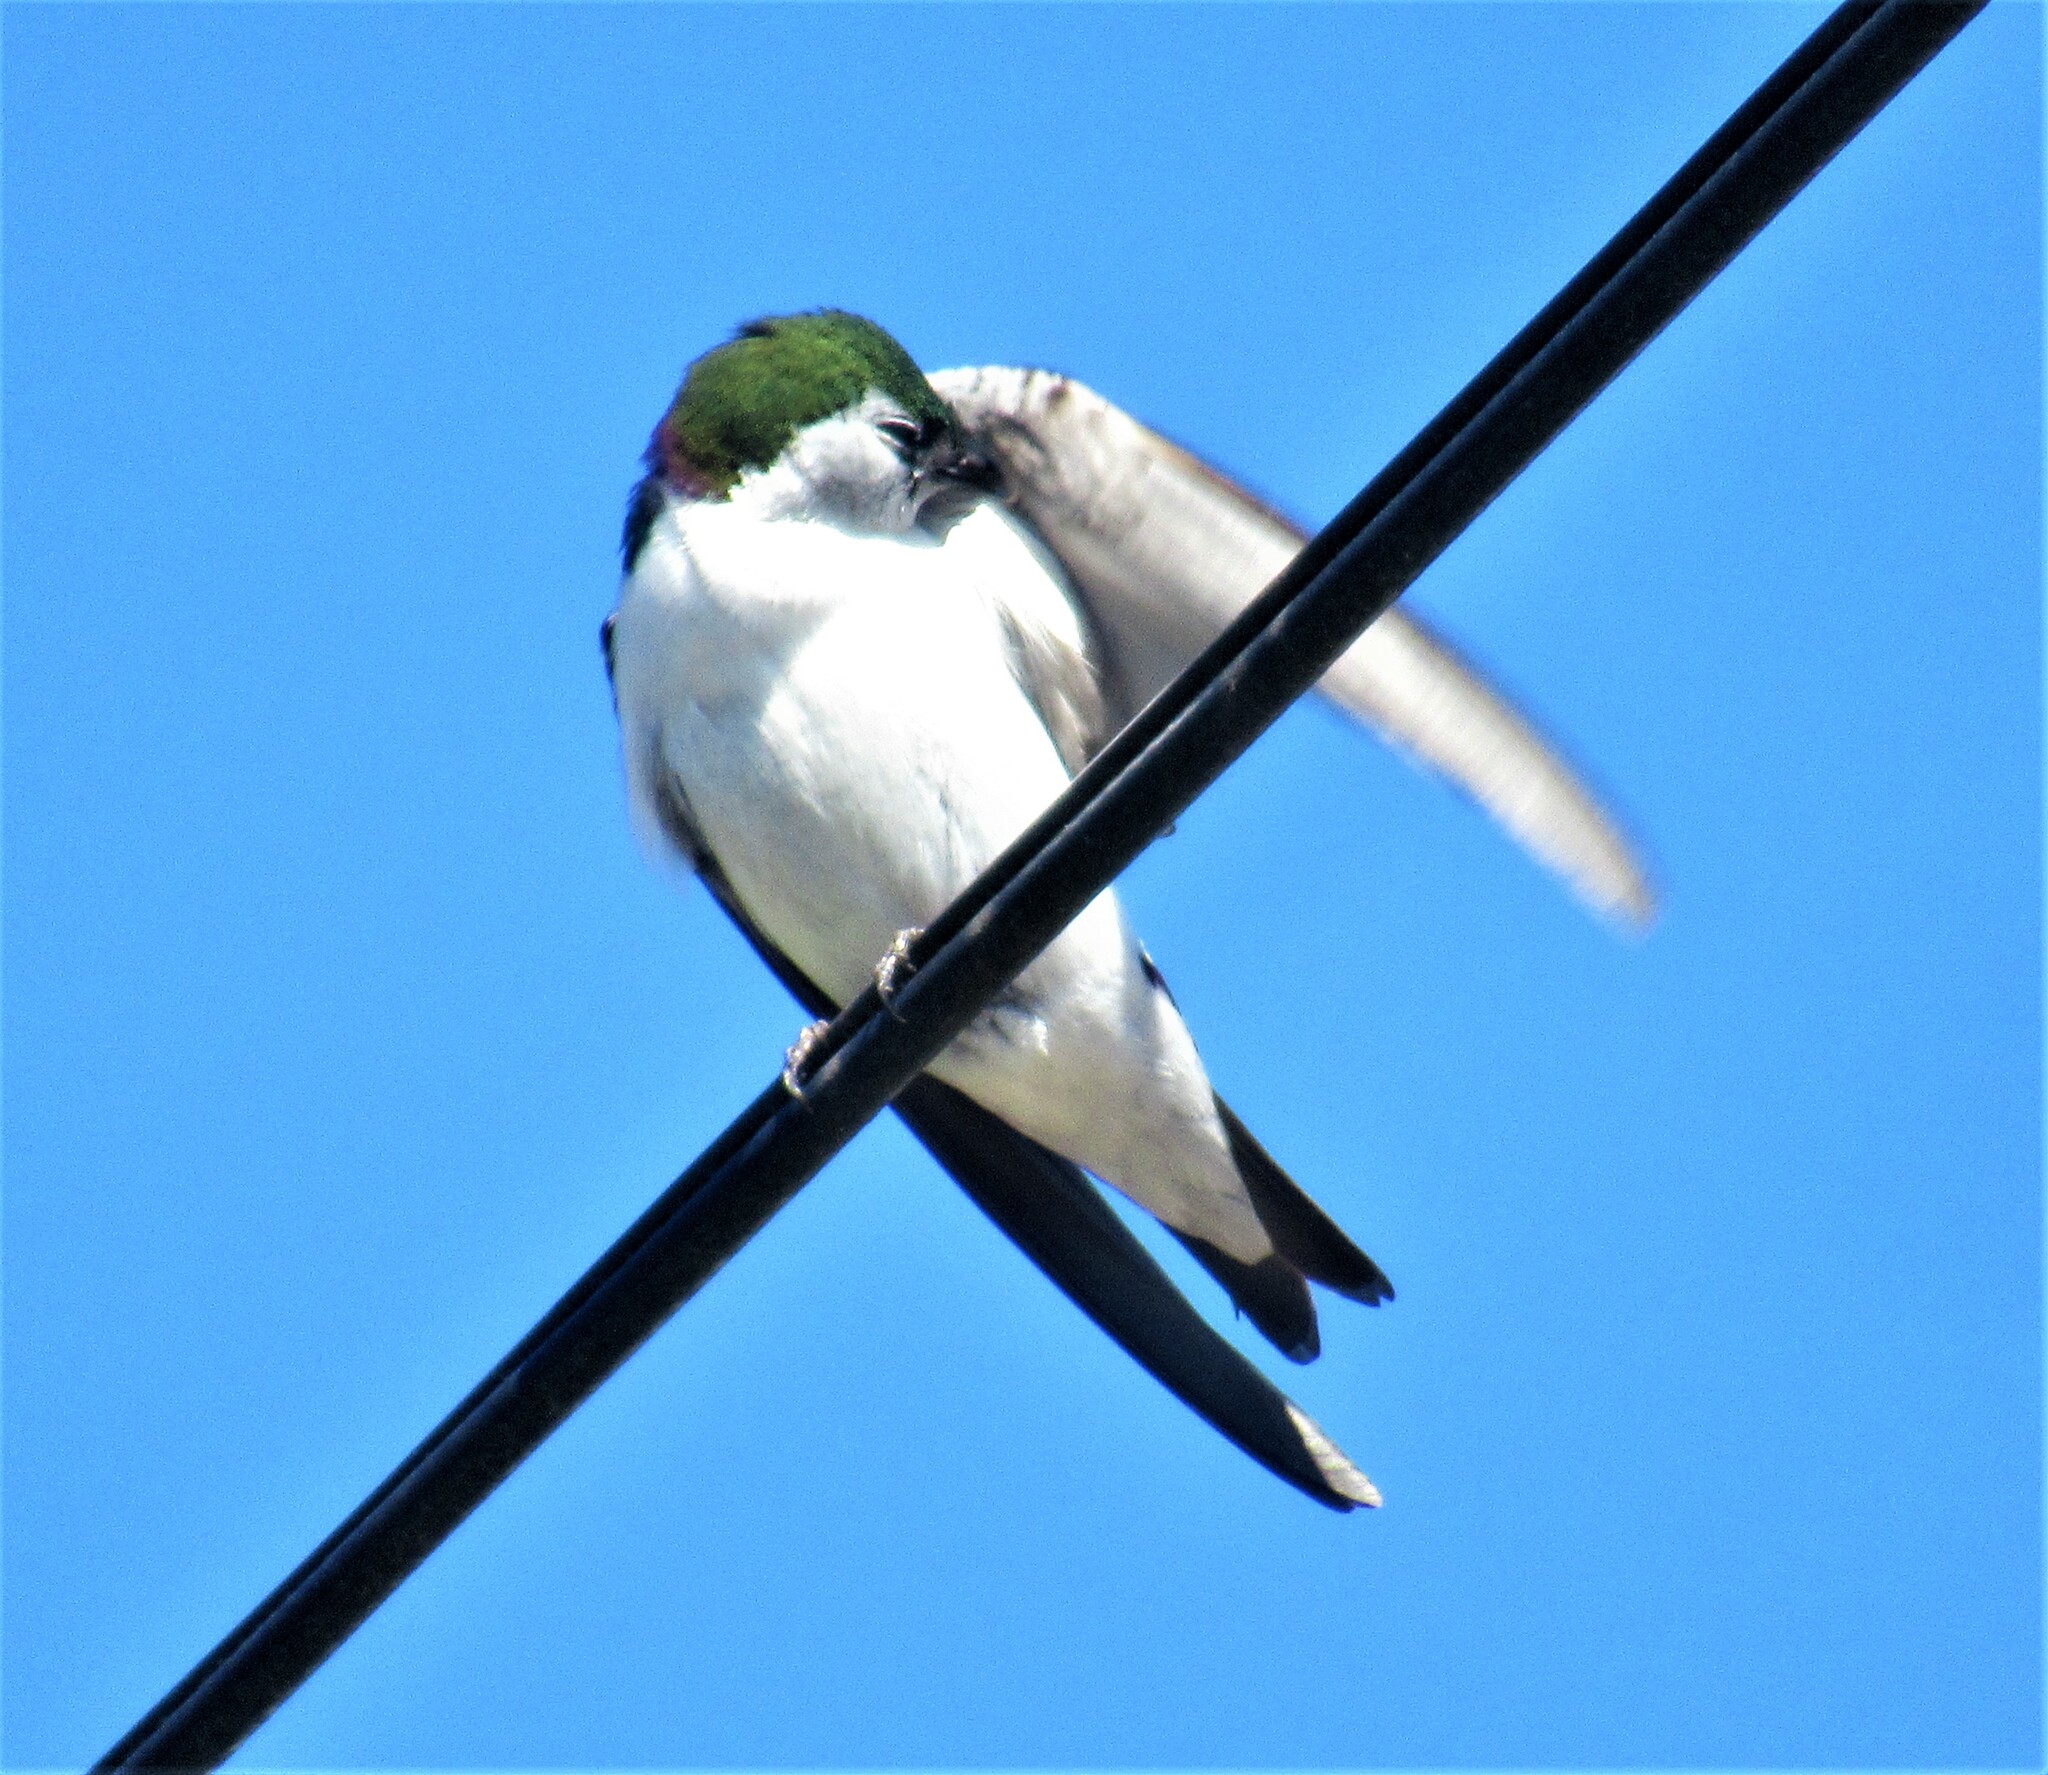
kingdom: Animalia
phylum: Chordata
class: Aves
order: Passeriformes
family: Hirundinidae
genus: Tachycineta
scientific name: Tachycineta thalassina
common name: Violet-green swallow
